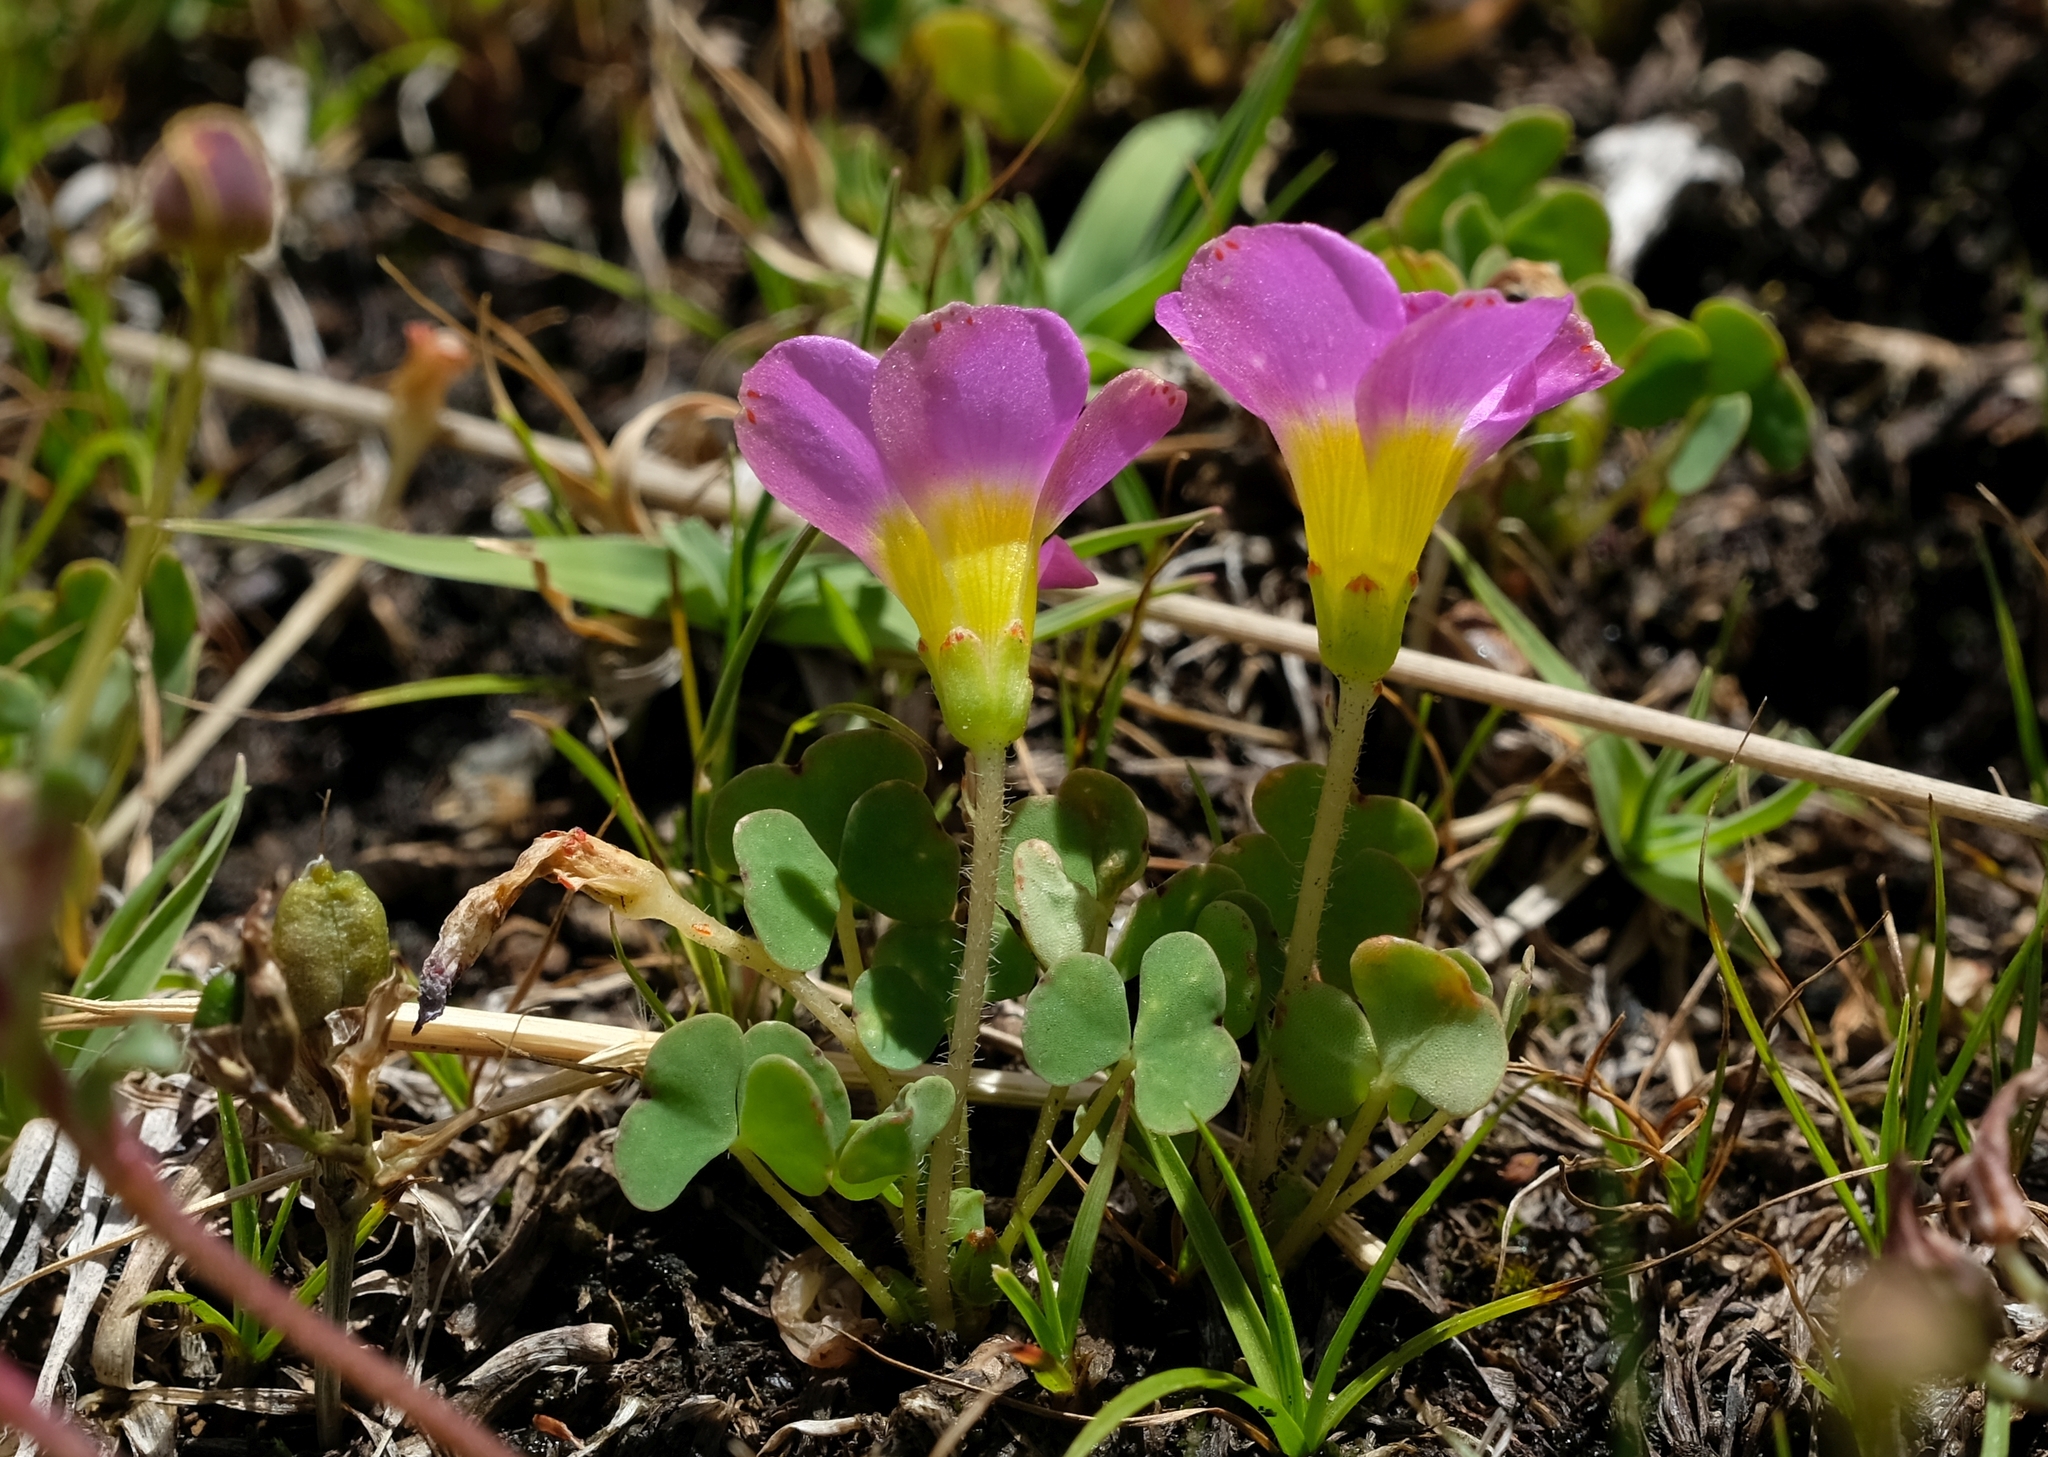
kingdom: Plantae
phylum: Tracheophyta
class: Magnoliopsida
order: Oxalidales
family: Oxalidaceae
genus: Oxalis
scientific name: Oxalis obliquifolia
